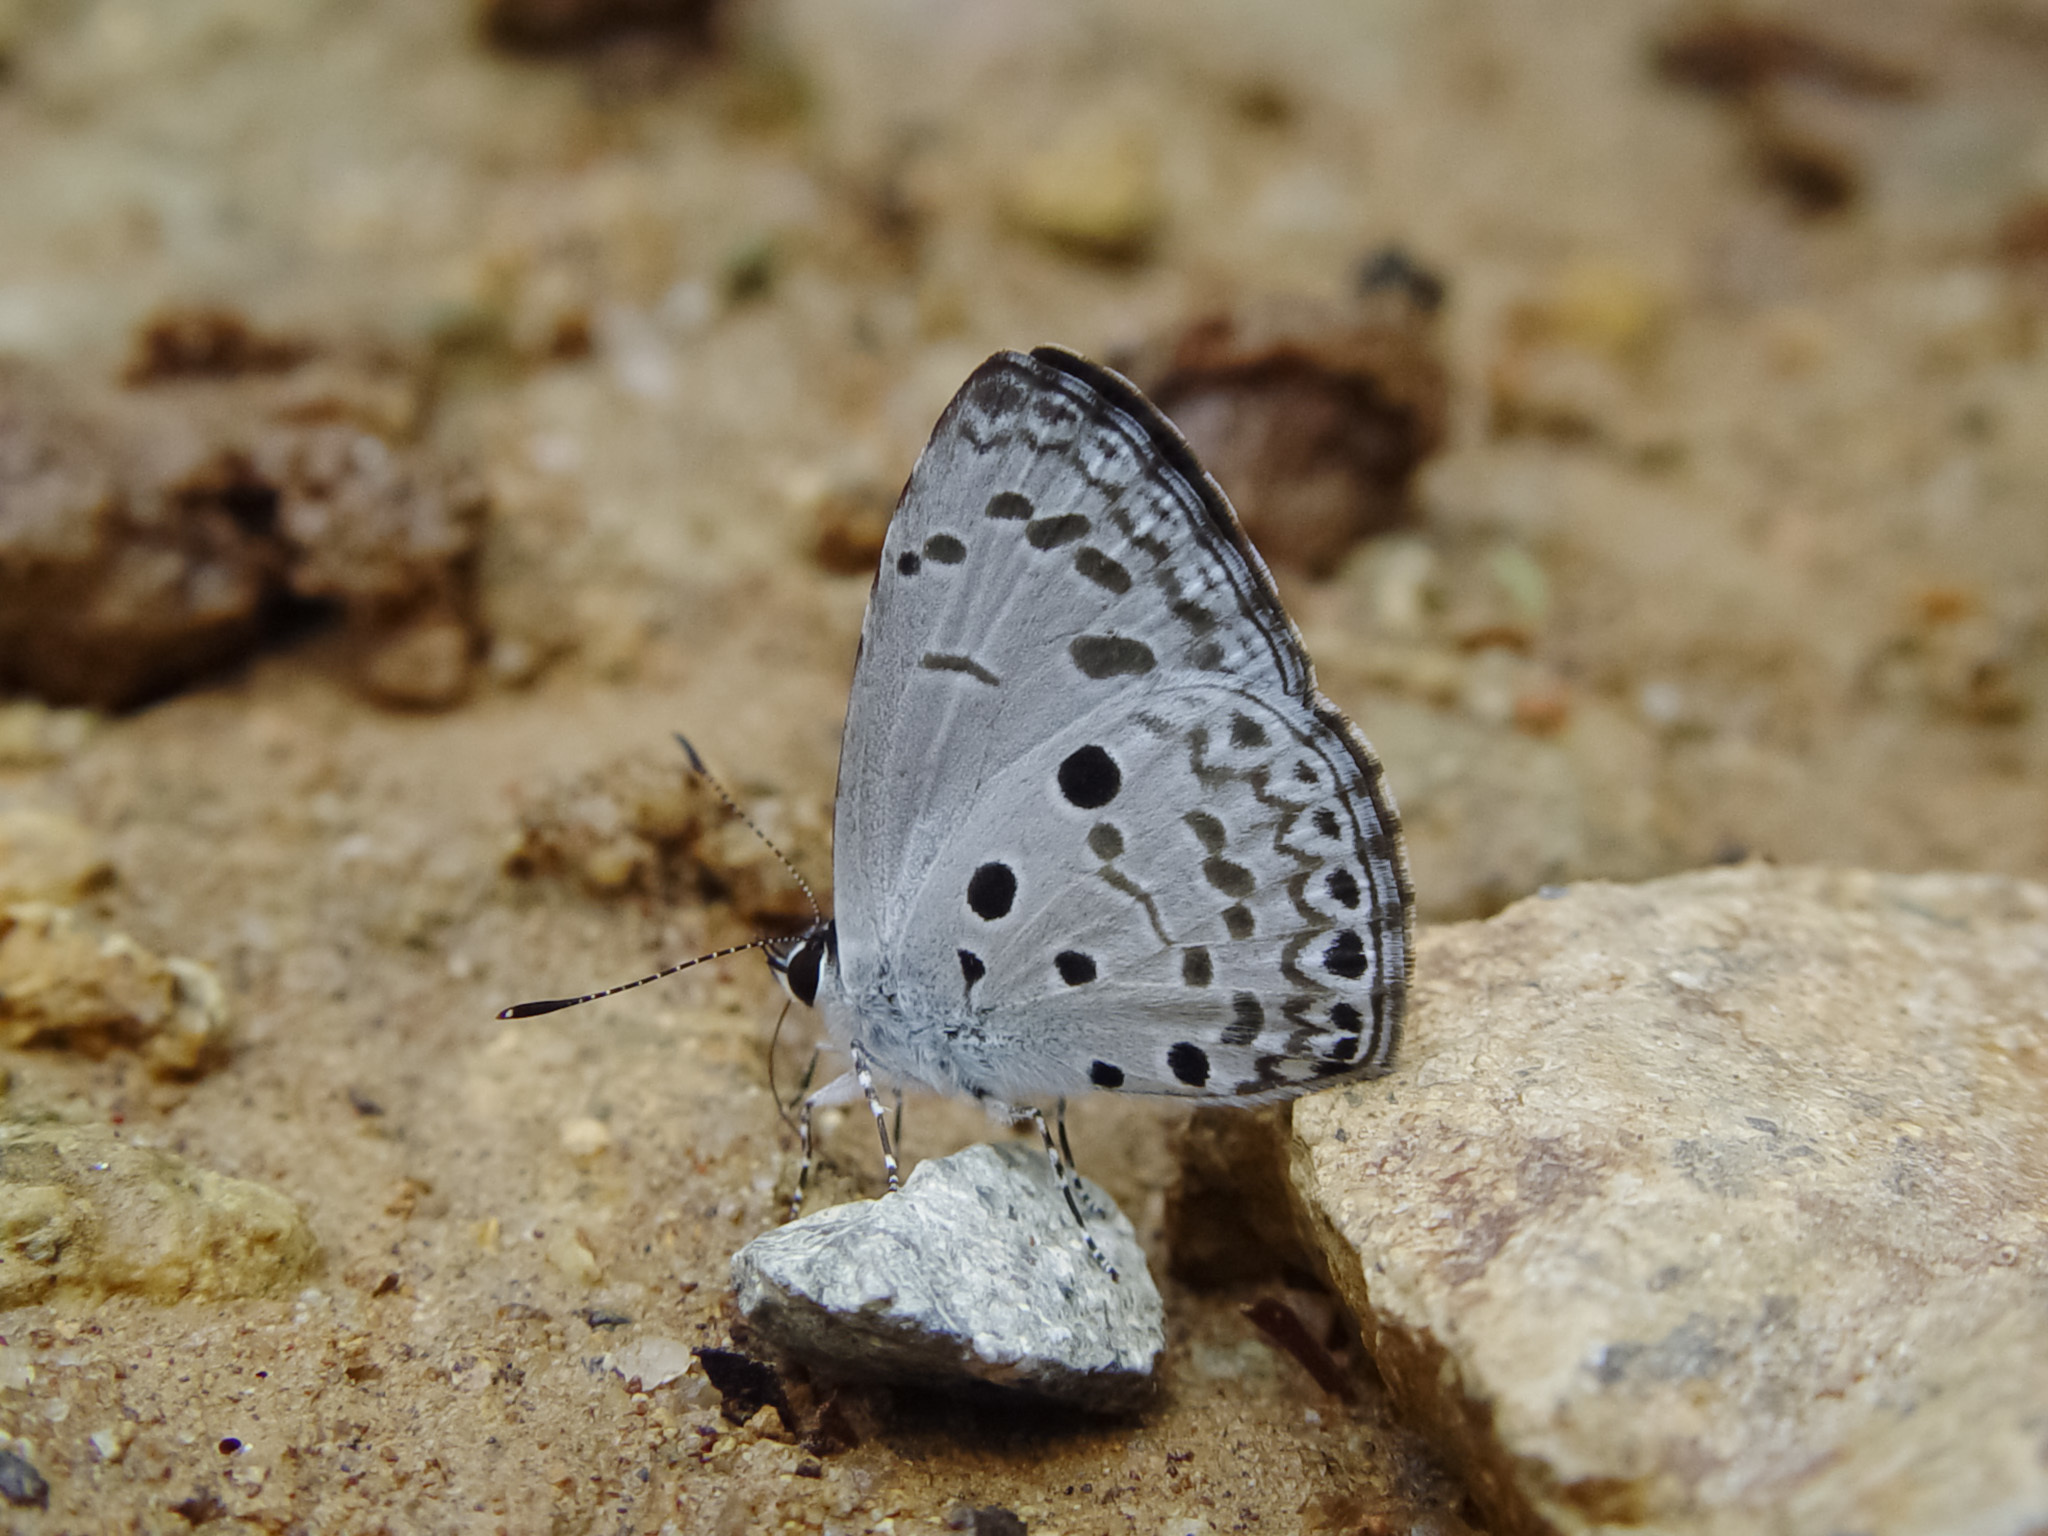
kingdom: Animalia
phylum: Arthropoda
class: Insecta
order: Lepidoptera
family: Lycaenidae
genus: Acytolepis
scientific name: Acytolepis puspa
